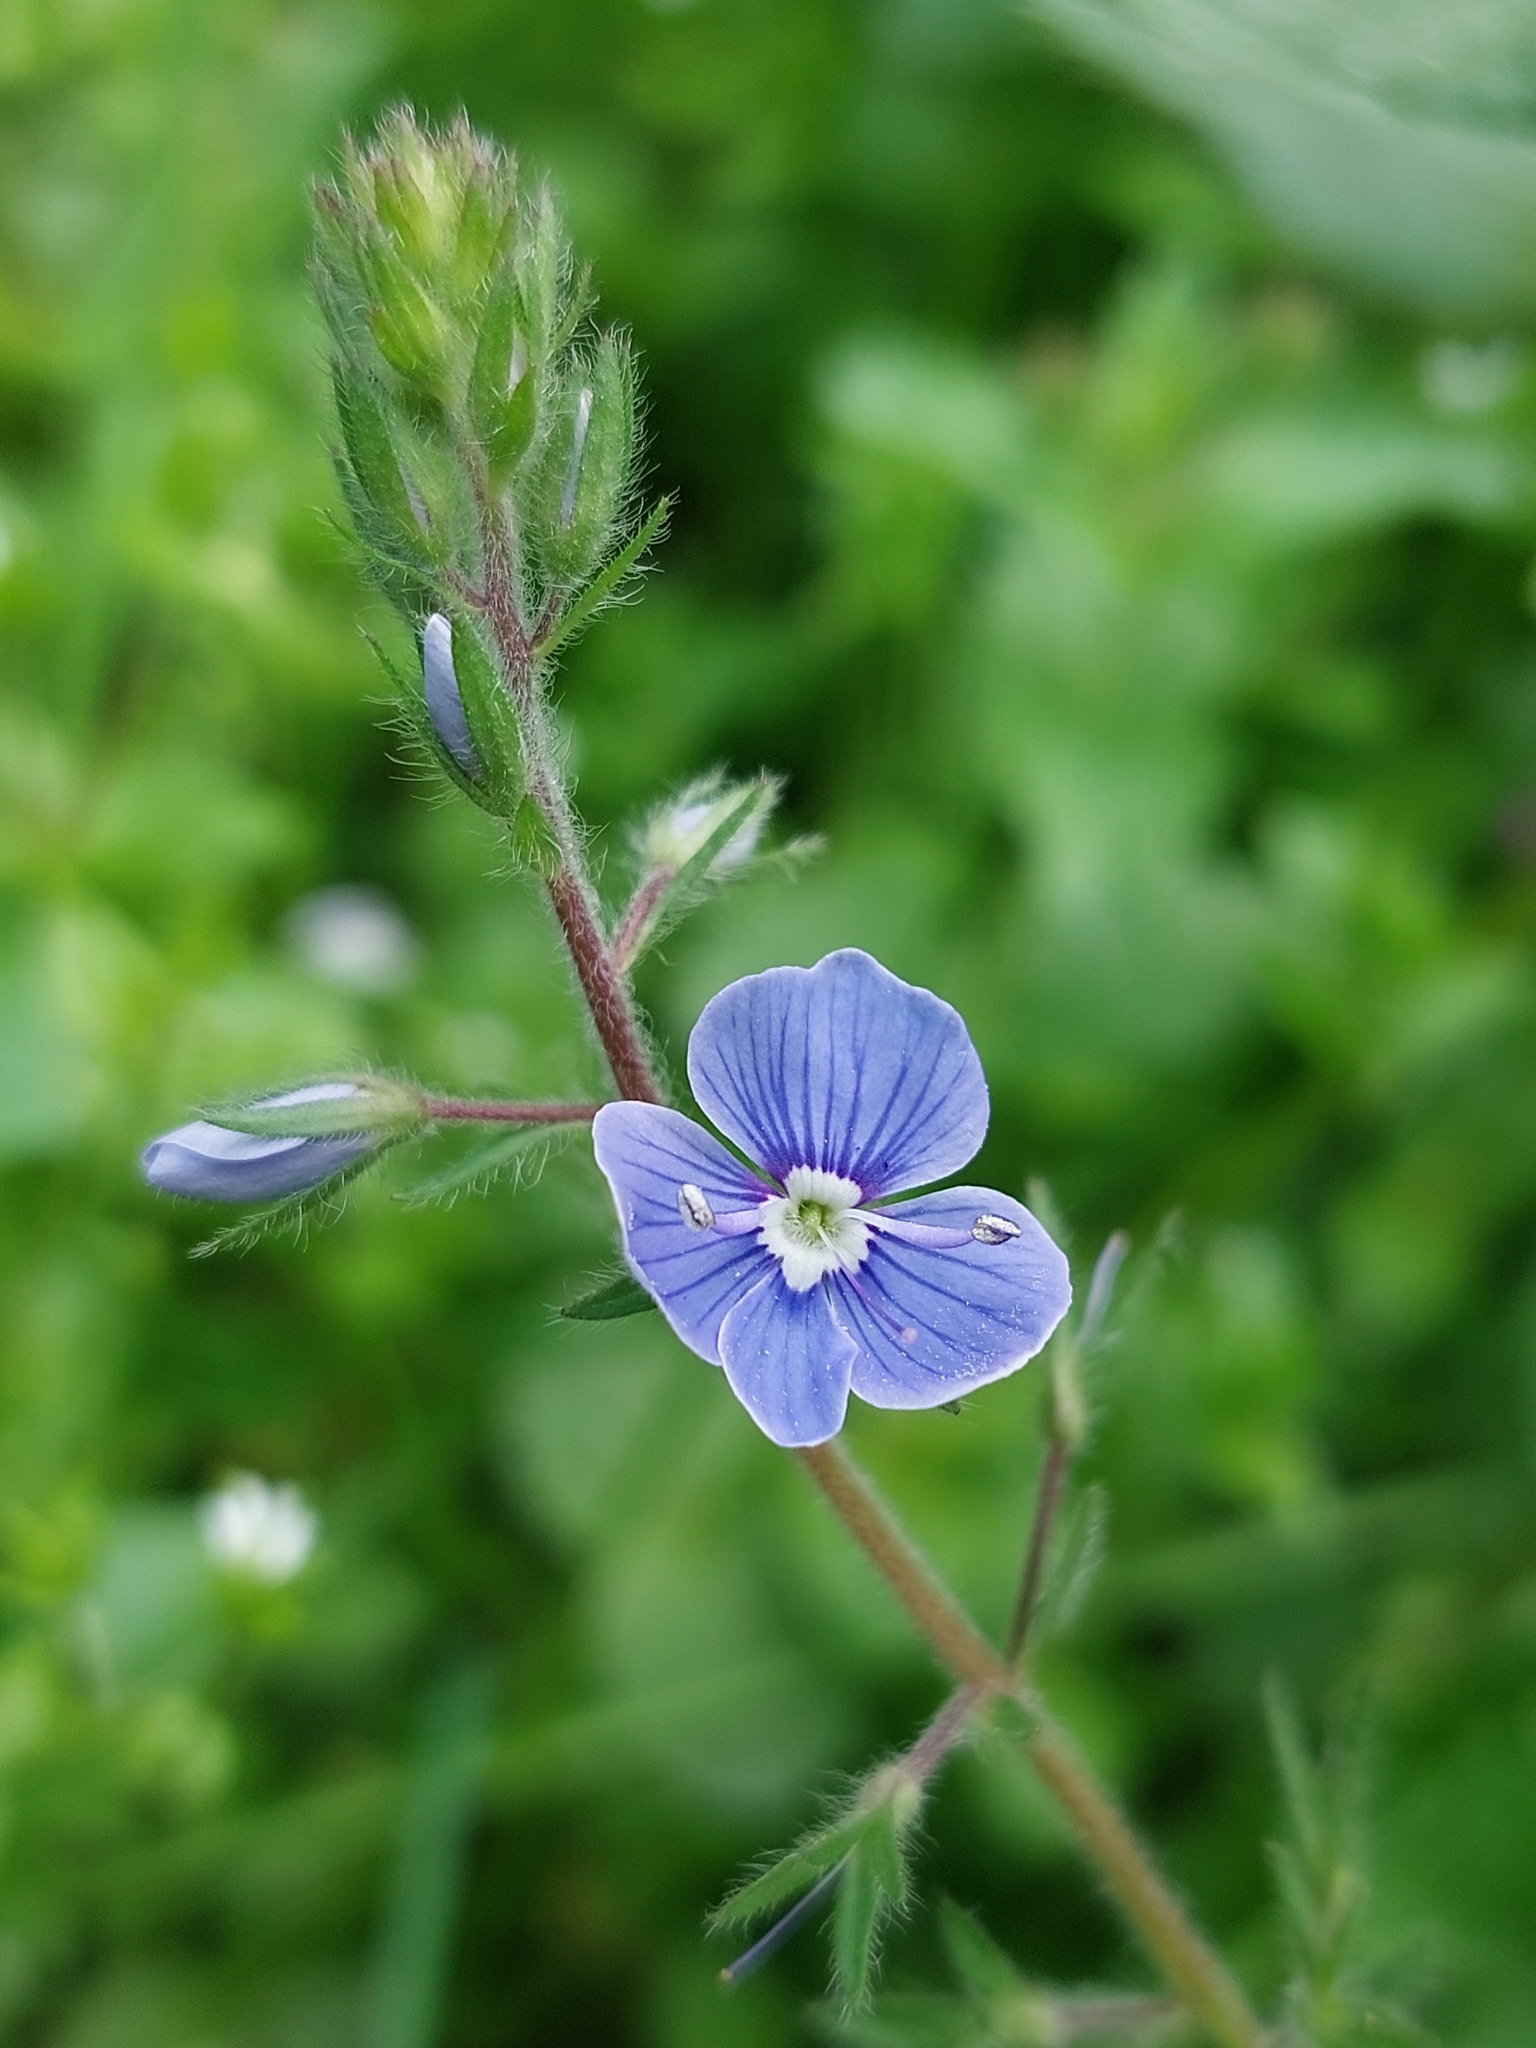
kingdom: Plantae
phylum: Tracheophyta
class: Magnoliopsida
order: Lamiales
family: Plantaginaceae
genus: Veronica
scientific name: Veronica chamaedrys
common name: Germander speedwell
